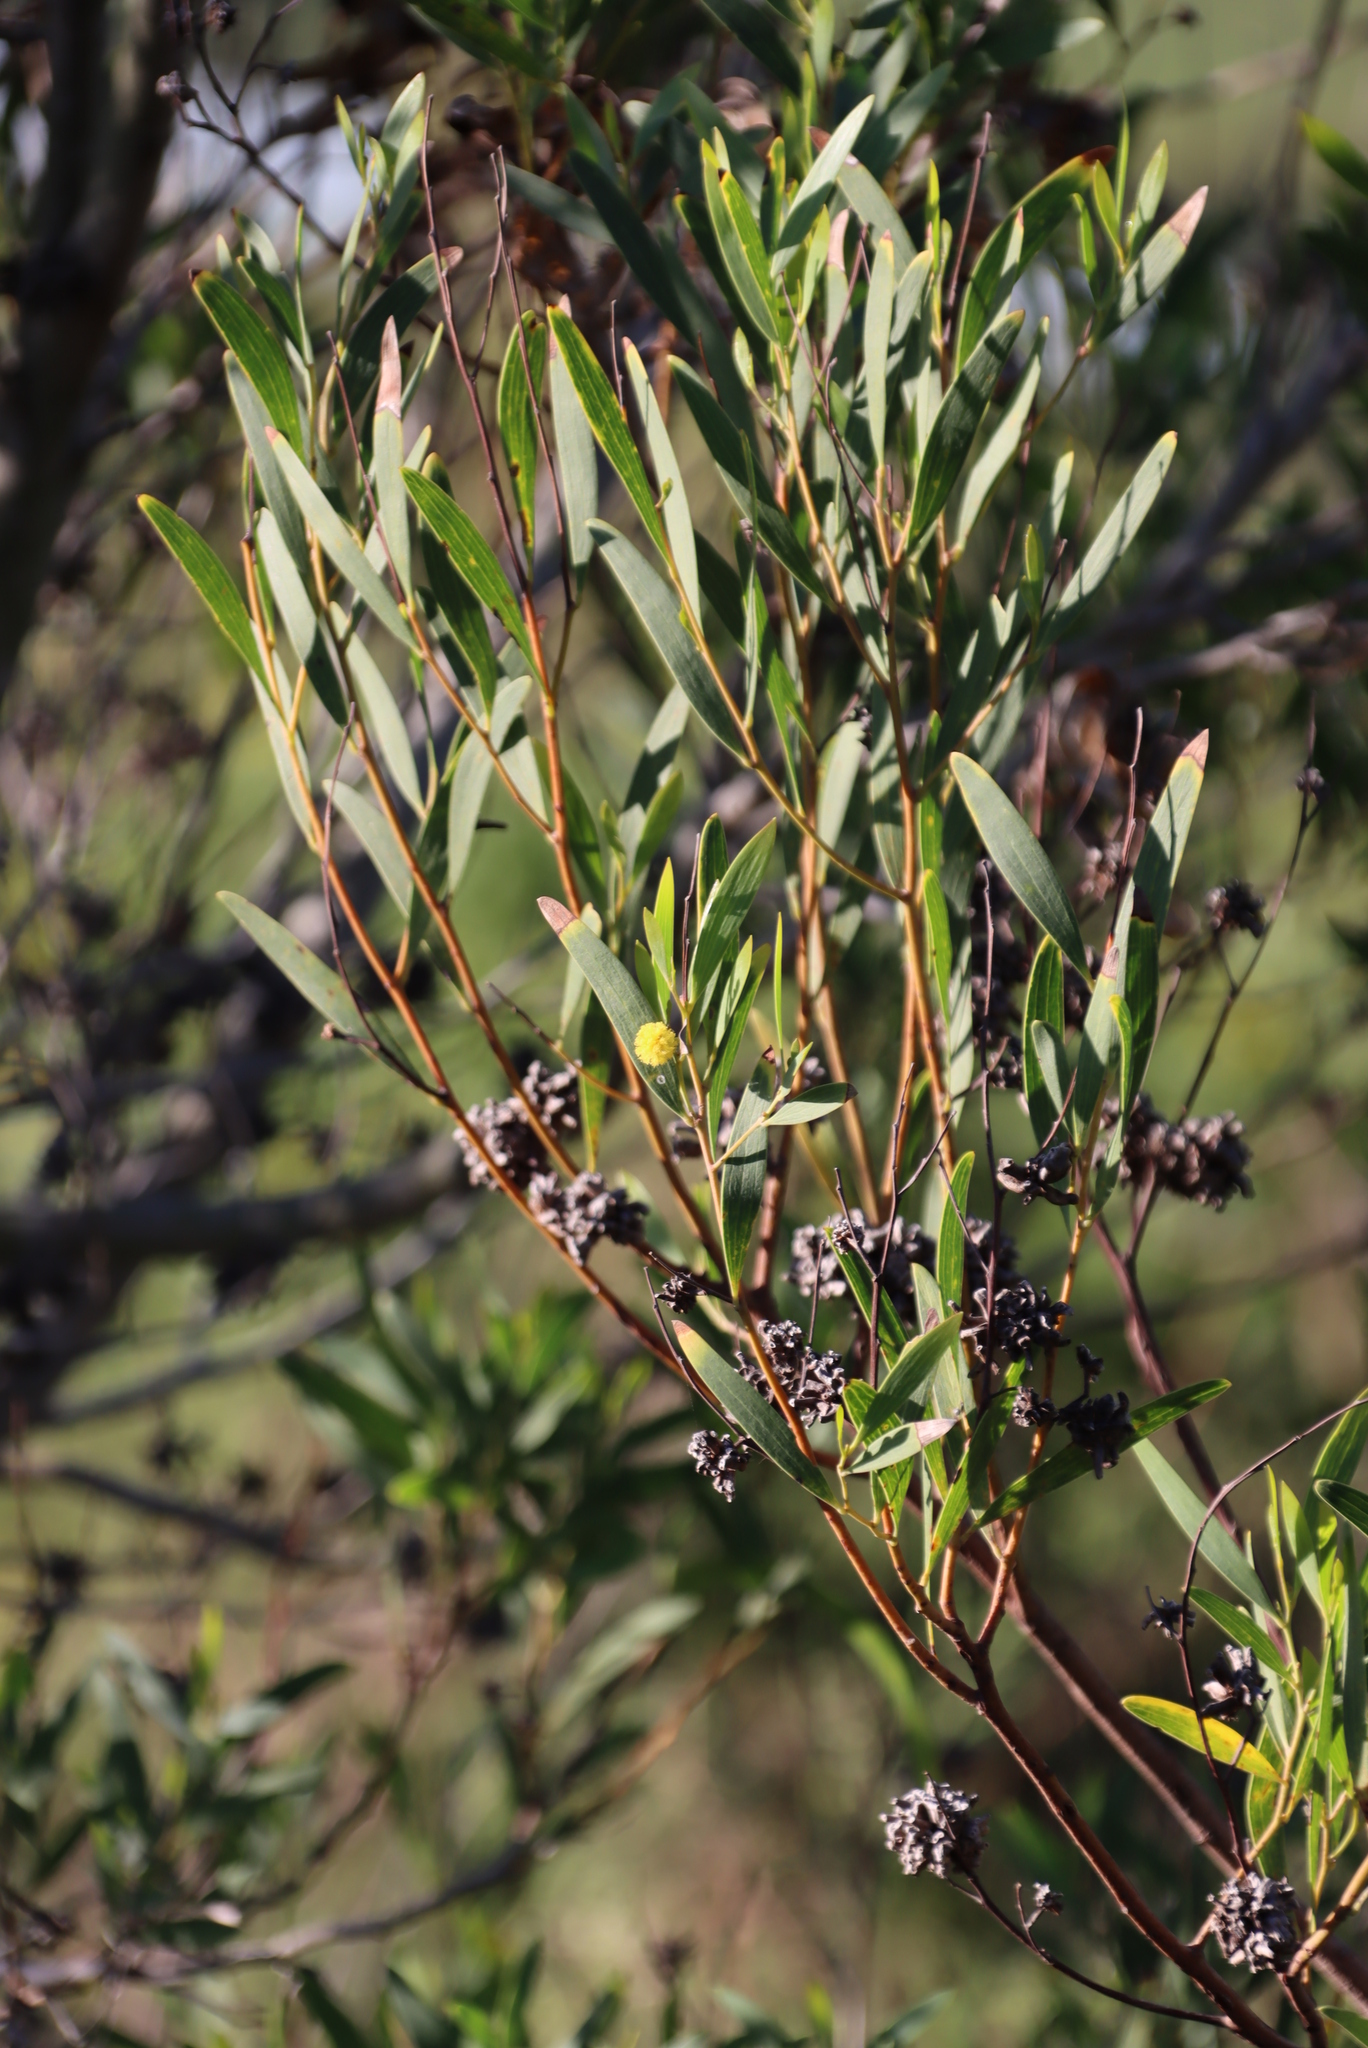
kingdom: Animalia
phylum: Arthropoda
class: Insecta
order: Diptera
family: Cecidomyiidae
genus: Dasineura
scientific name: Dasineura dielsi
